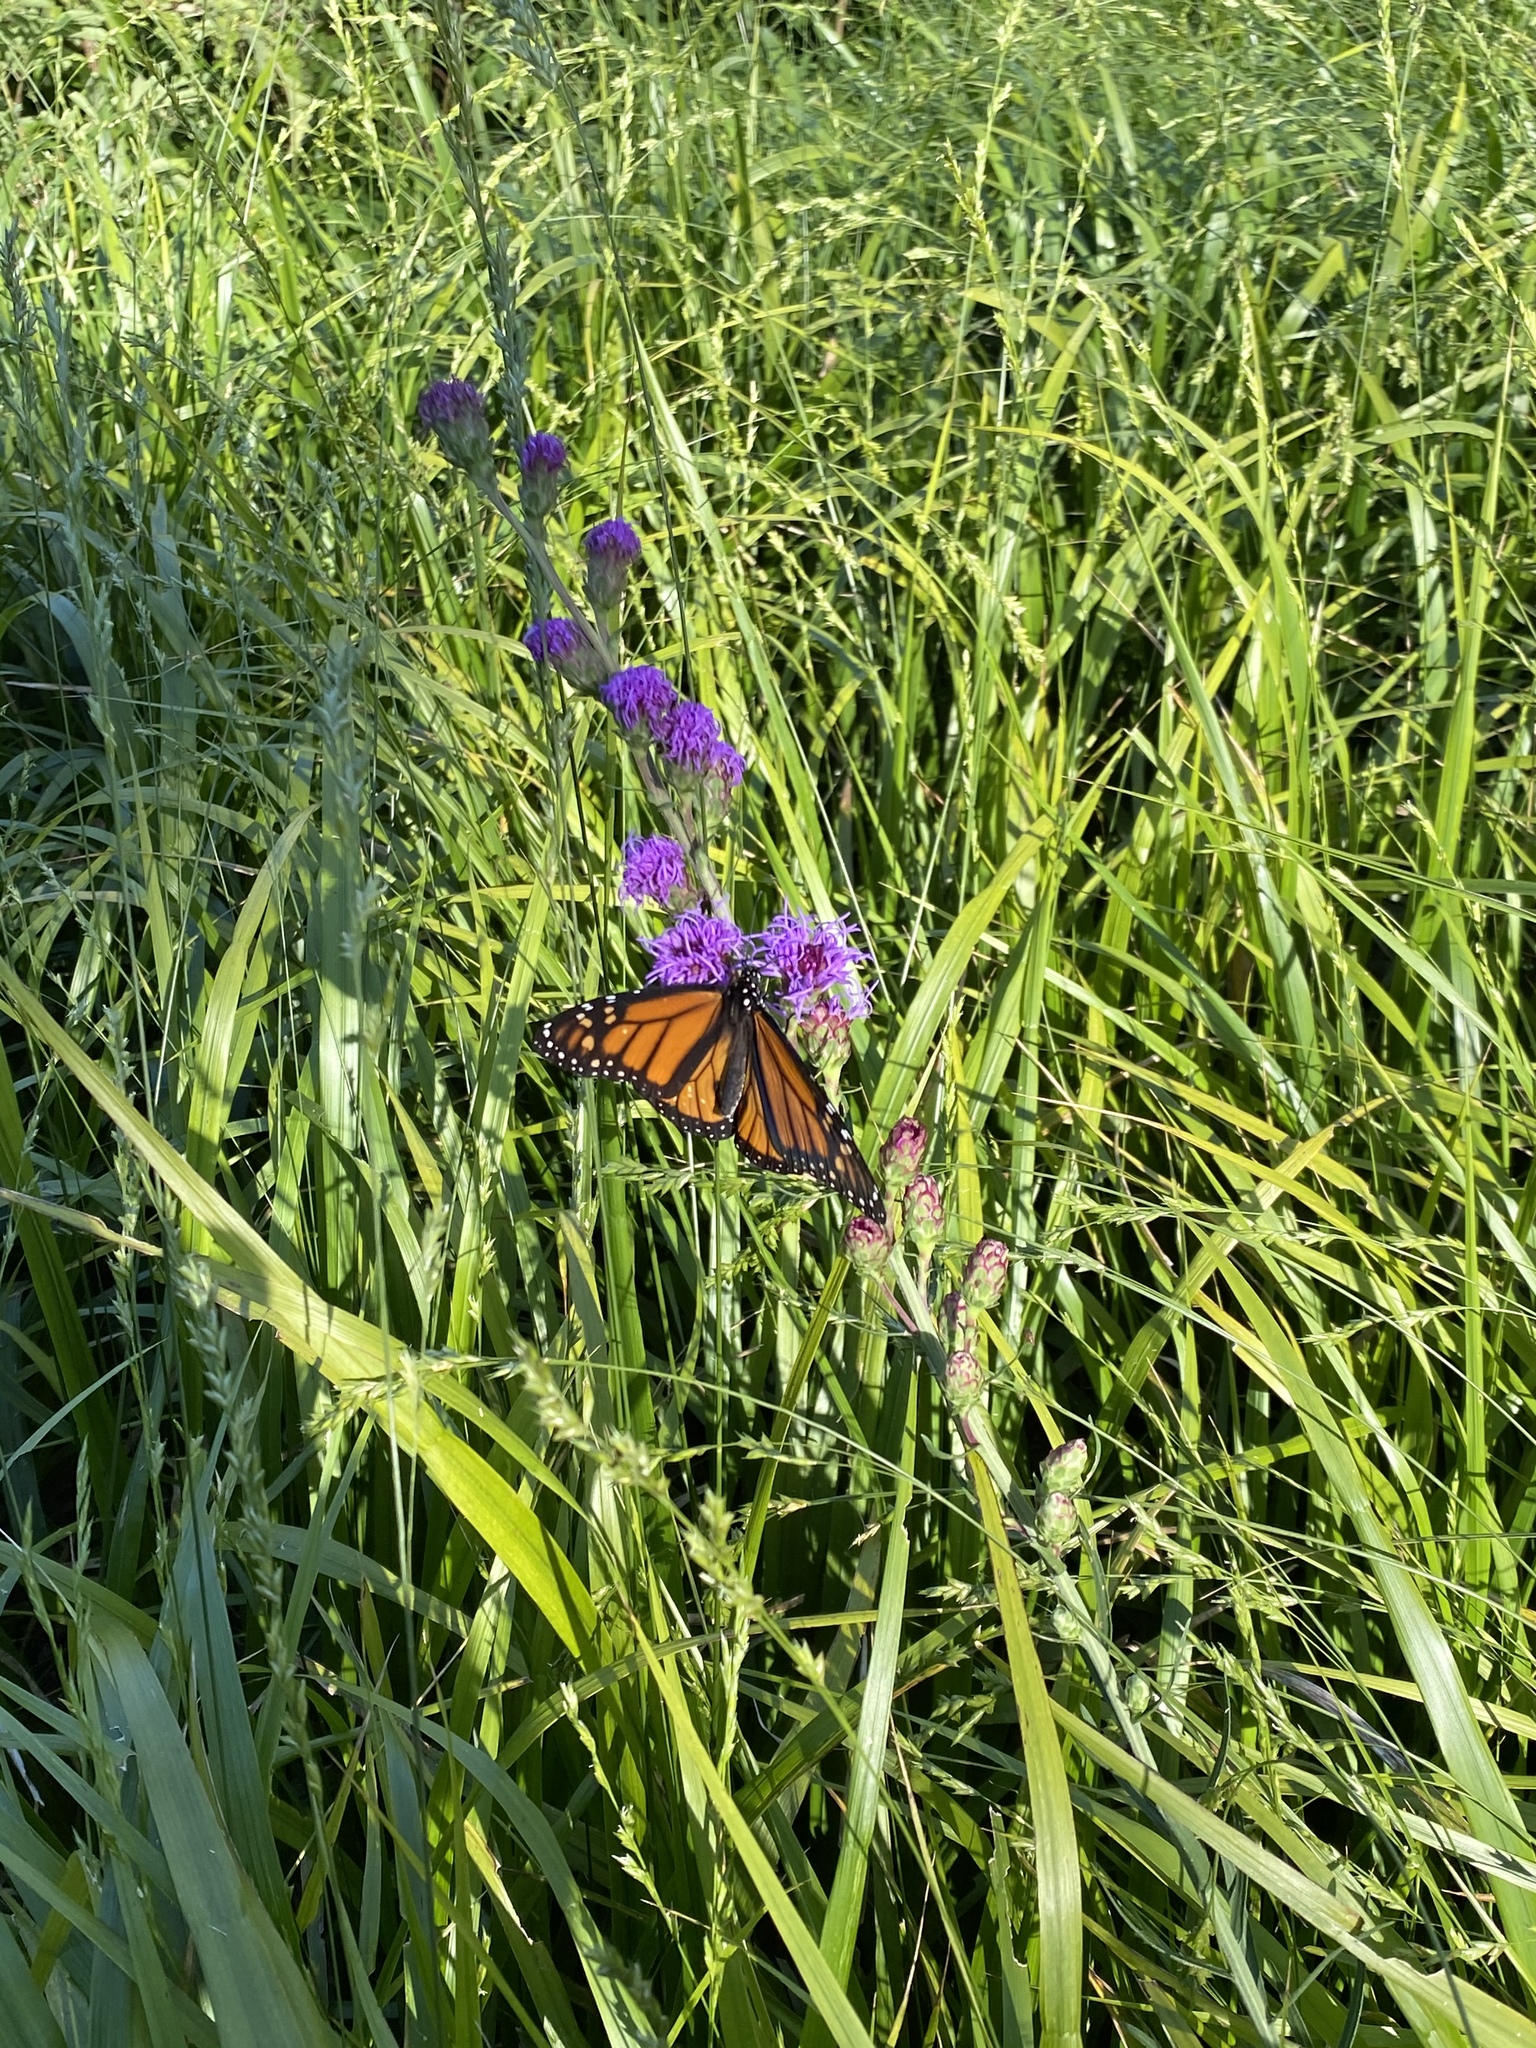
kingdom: Animalia
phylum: Arthropoda
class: Insecta
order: Lepidoptera
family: Nymphalidae
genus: Danaus
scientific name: Danaus plexippus
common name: Monarch
